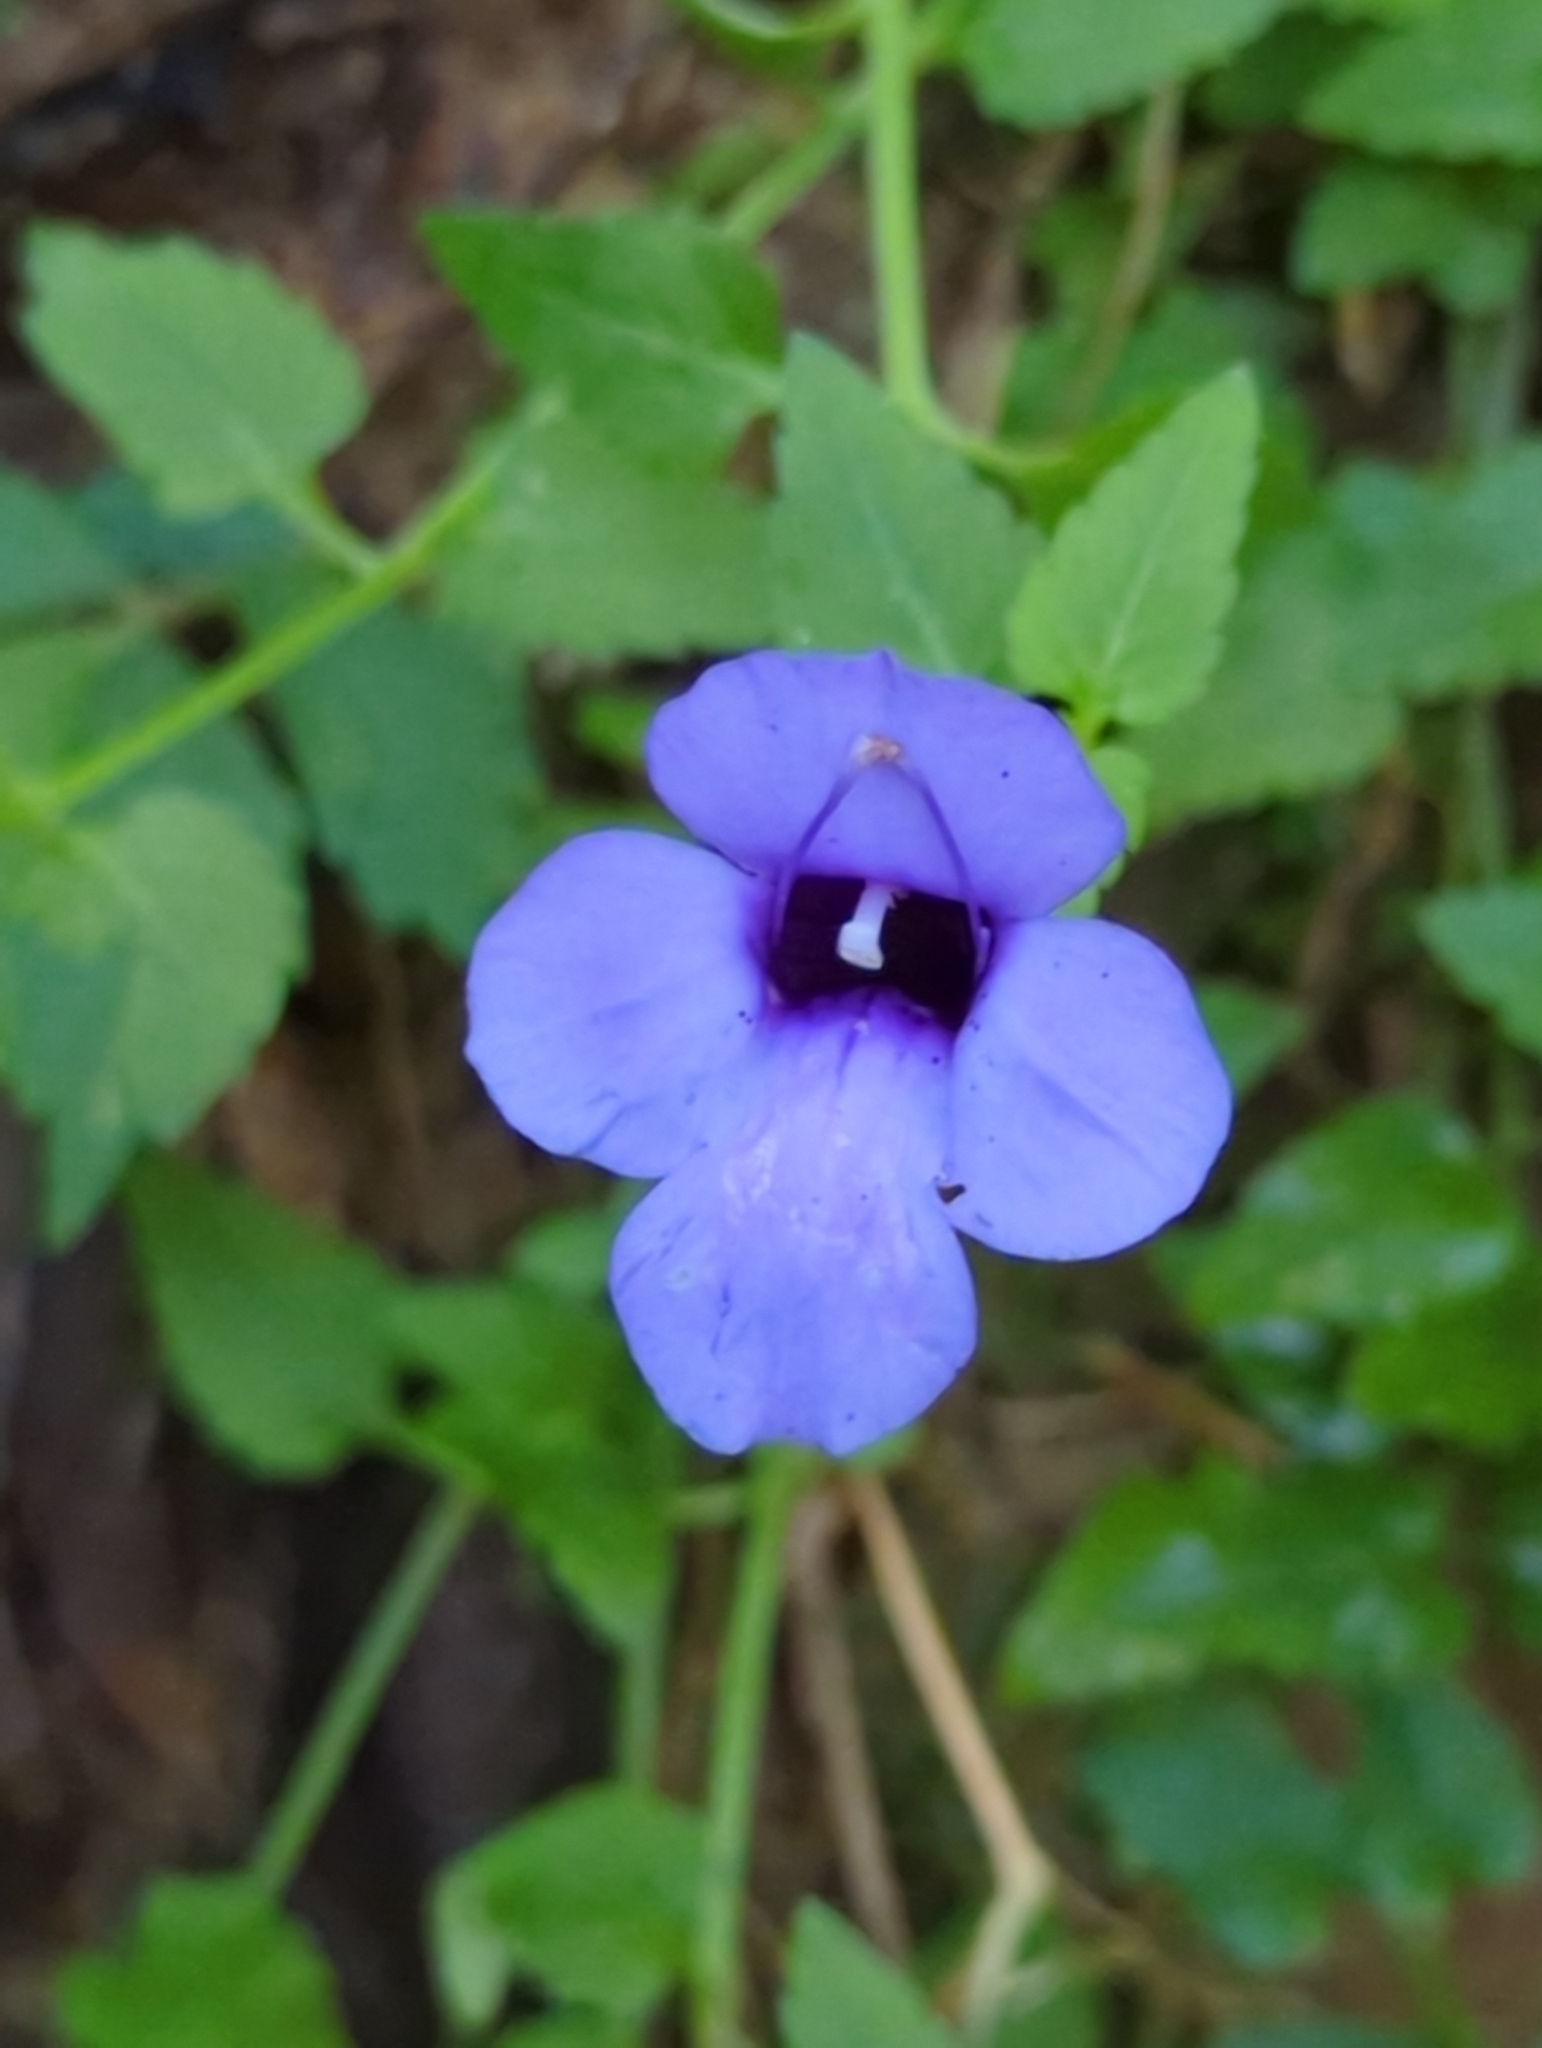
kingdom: Plantae
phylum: Tracheophyta
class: Magnoliopsida
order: Lamiales
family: Linderniaceae
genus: Torenia
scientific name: Torenia concolor
